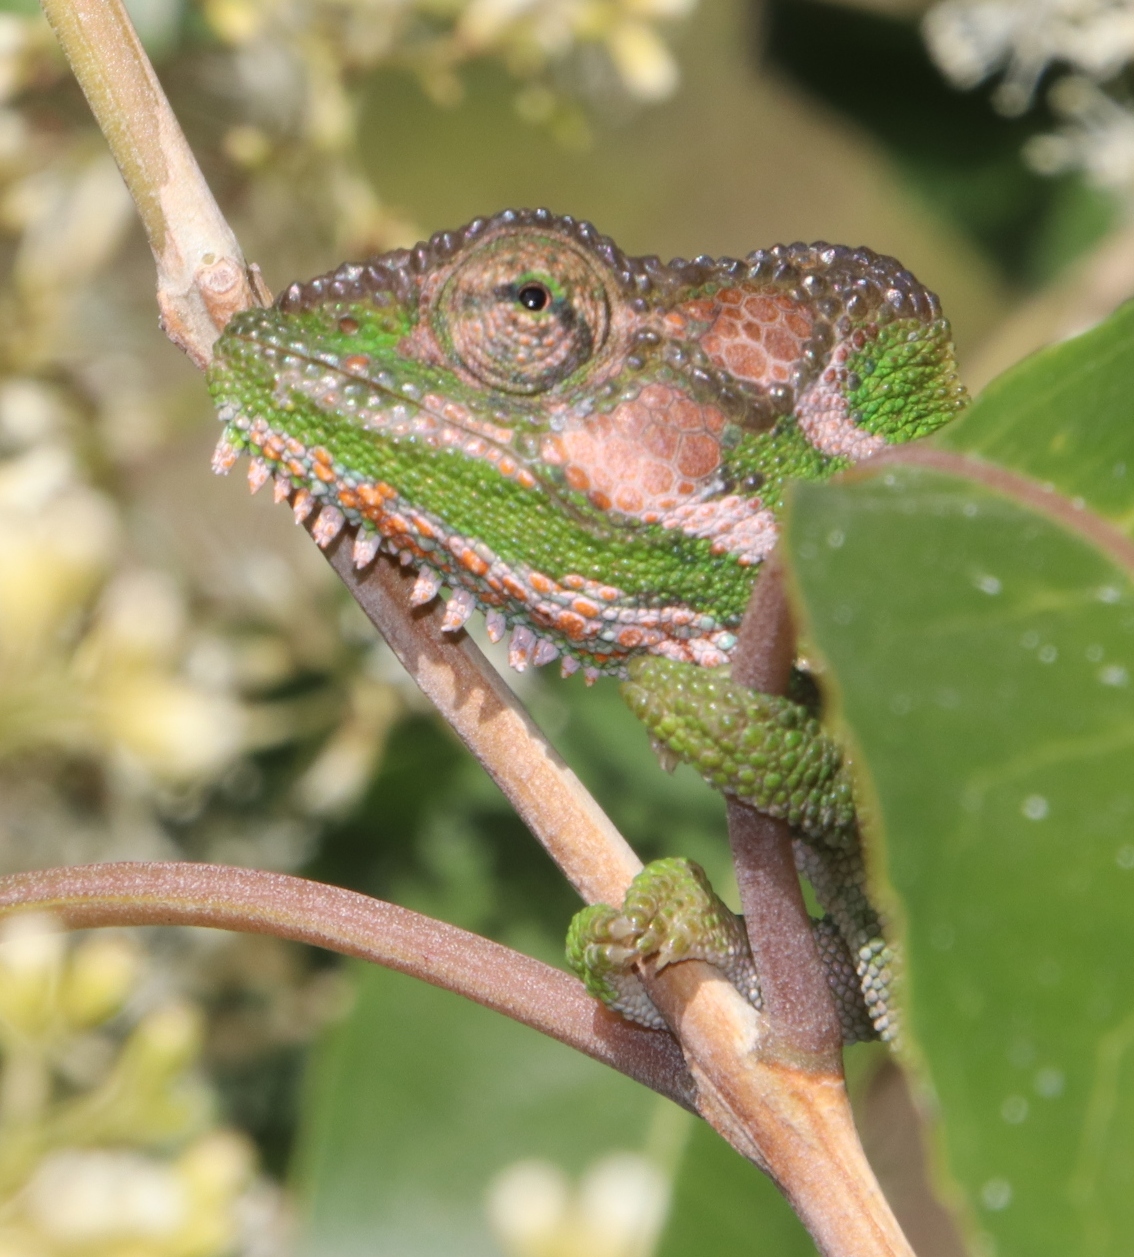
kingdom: Animalia
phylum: Chordata
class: Squamata
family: Chamaeleonidae
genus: Bradypodion
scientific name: Bradypodion pumilum
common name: Cape dwarf chameleon
